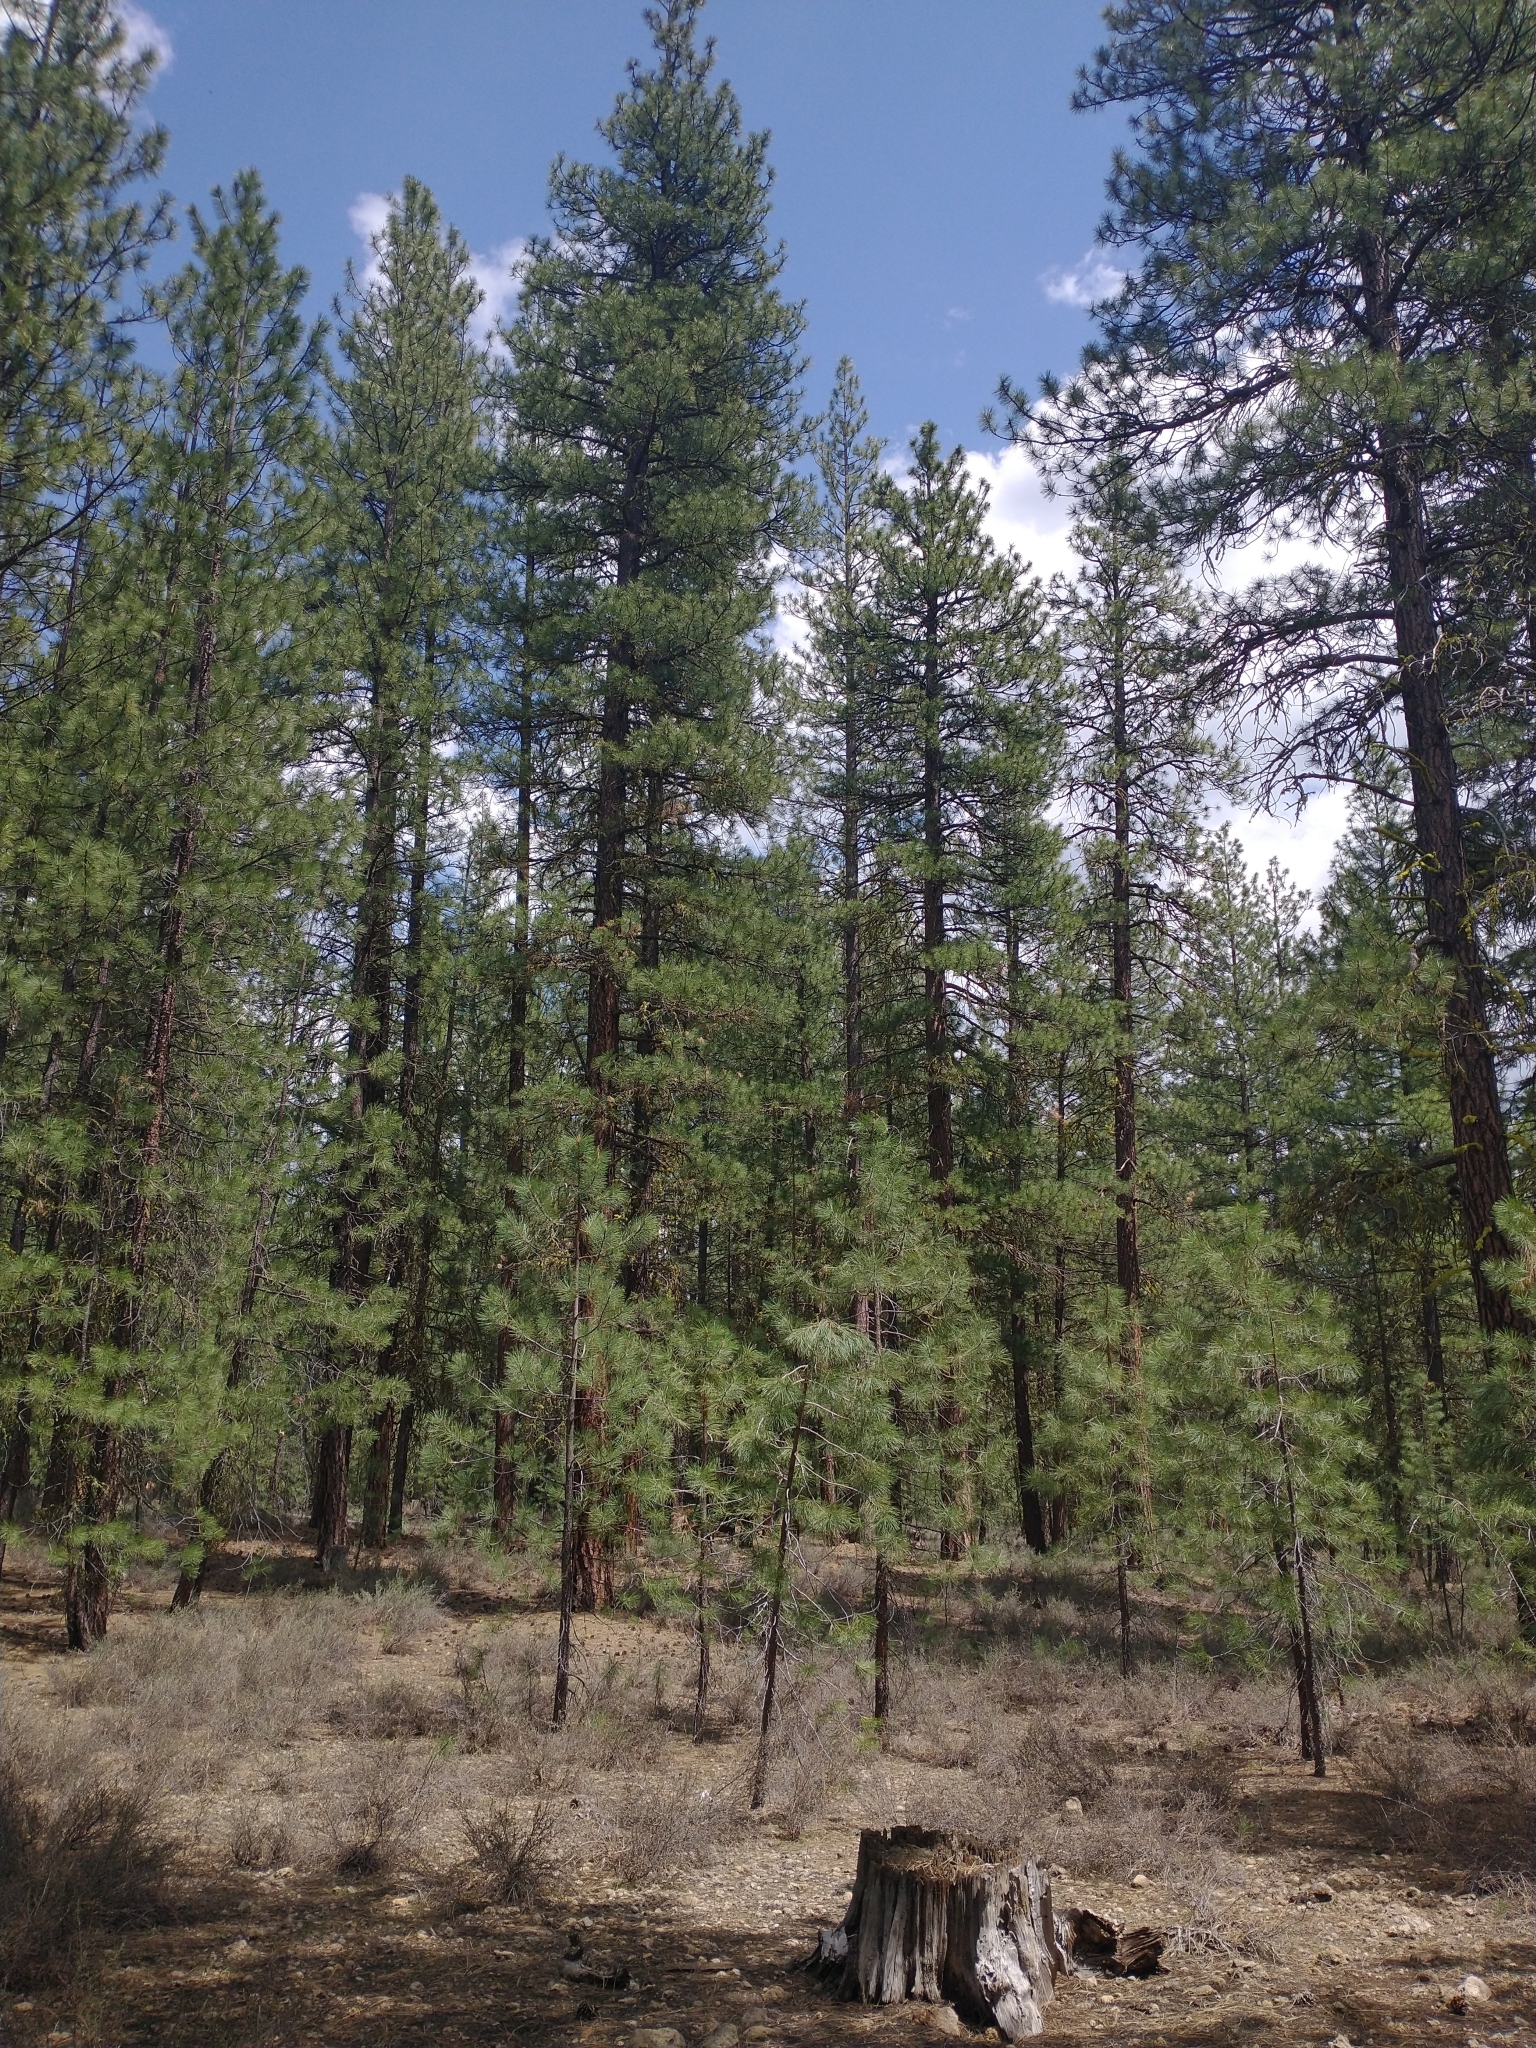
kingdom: Plantae
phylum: Tracheophyta
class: Pinopsida
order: Pinales
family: Pinaceae
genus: Pinus
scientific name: Pinus ponderosa
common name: Western yellow-pine
